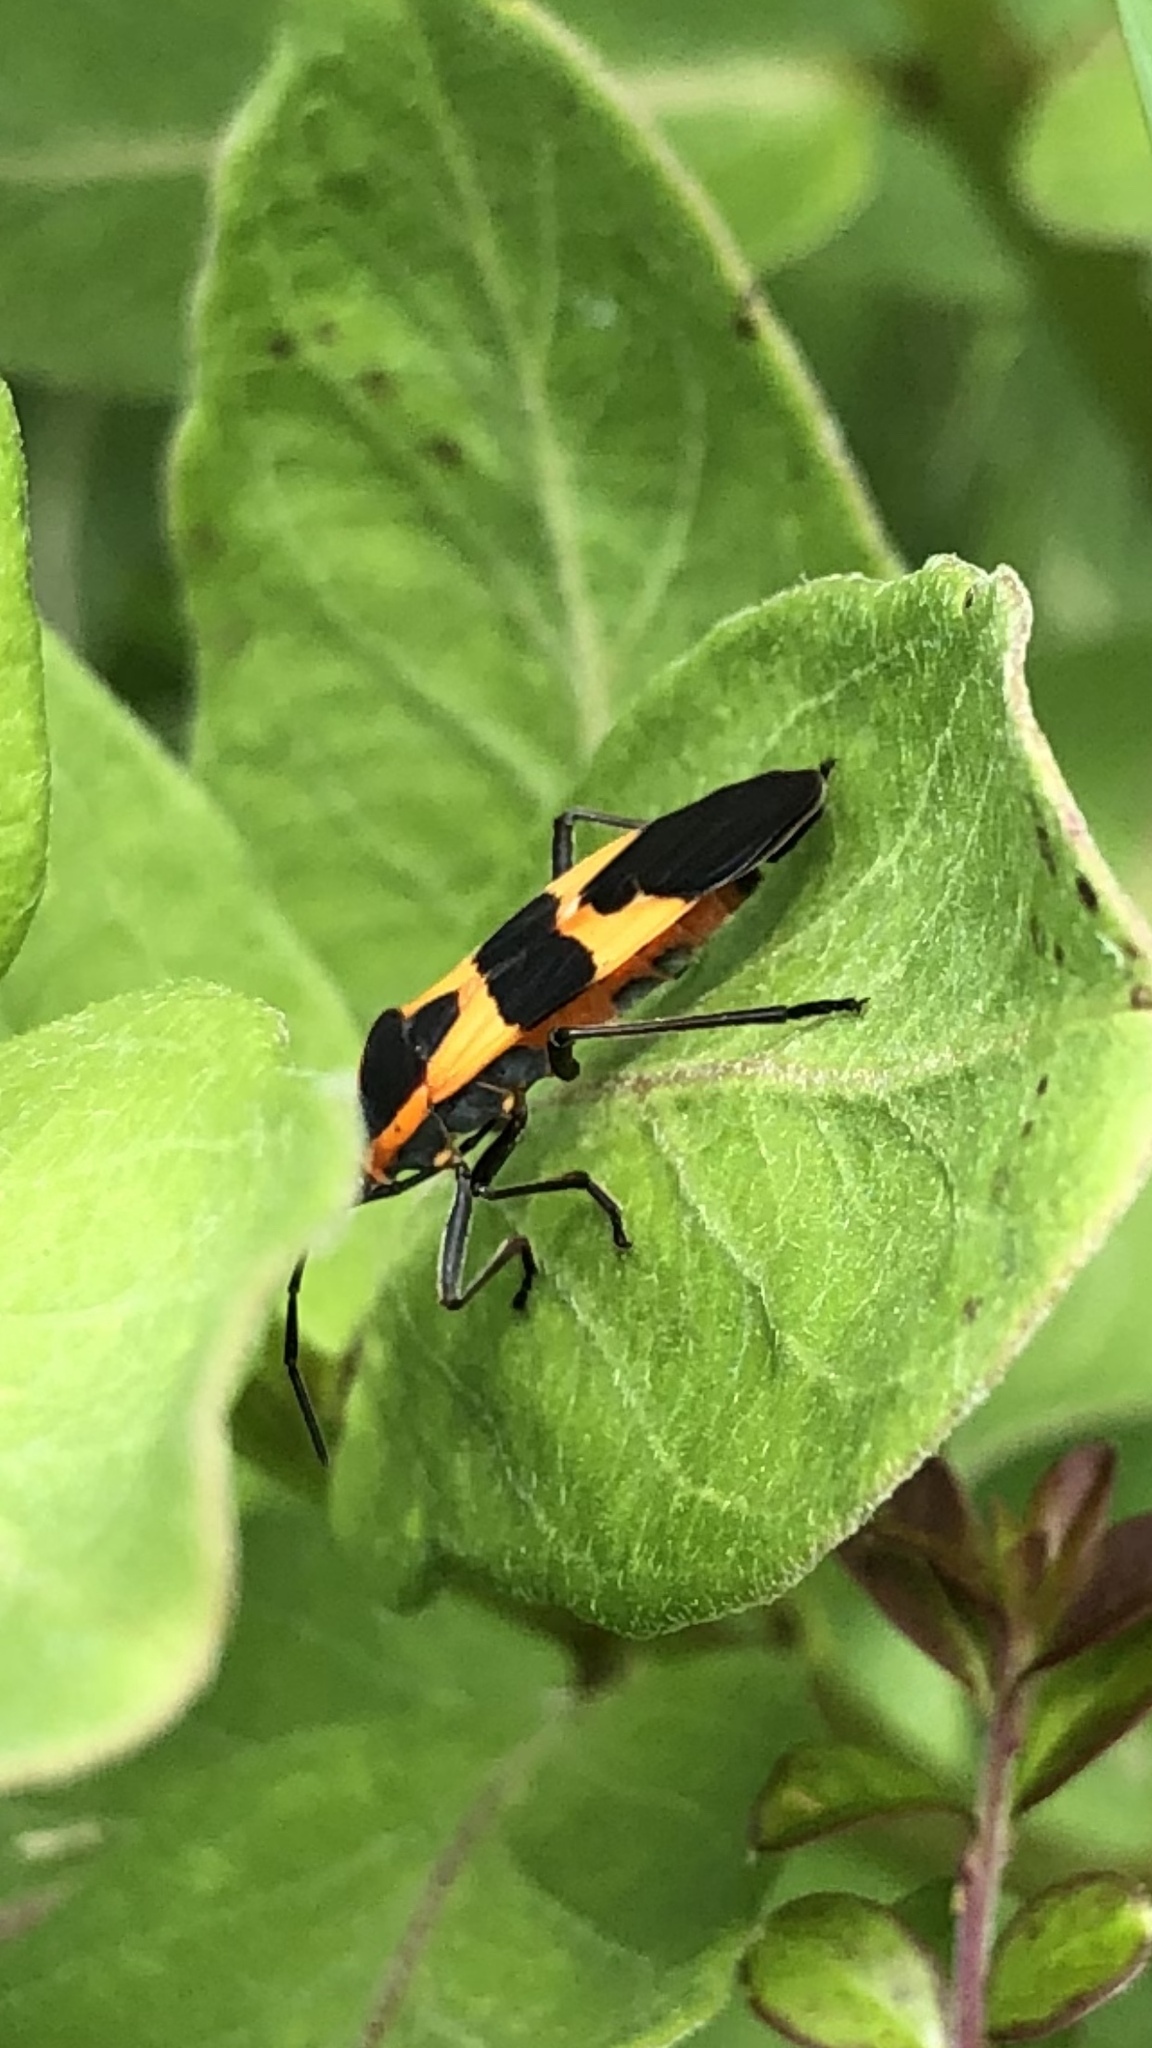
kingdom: Animalia
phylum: Arthropoda
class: Insecta
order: Hemiptera
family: Lygaeidae
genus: Oncopeltus
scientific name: Oncopeltus fasciatus
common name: Large milkweed bug
